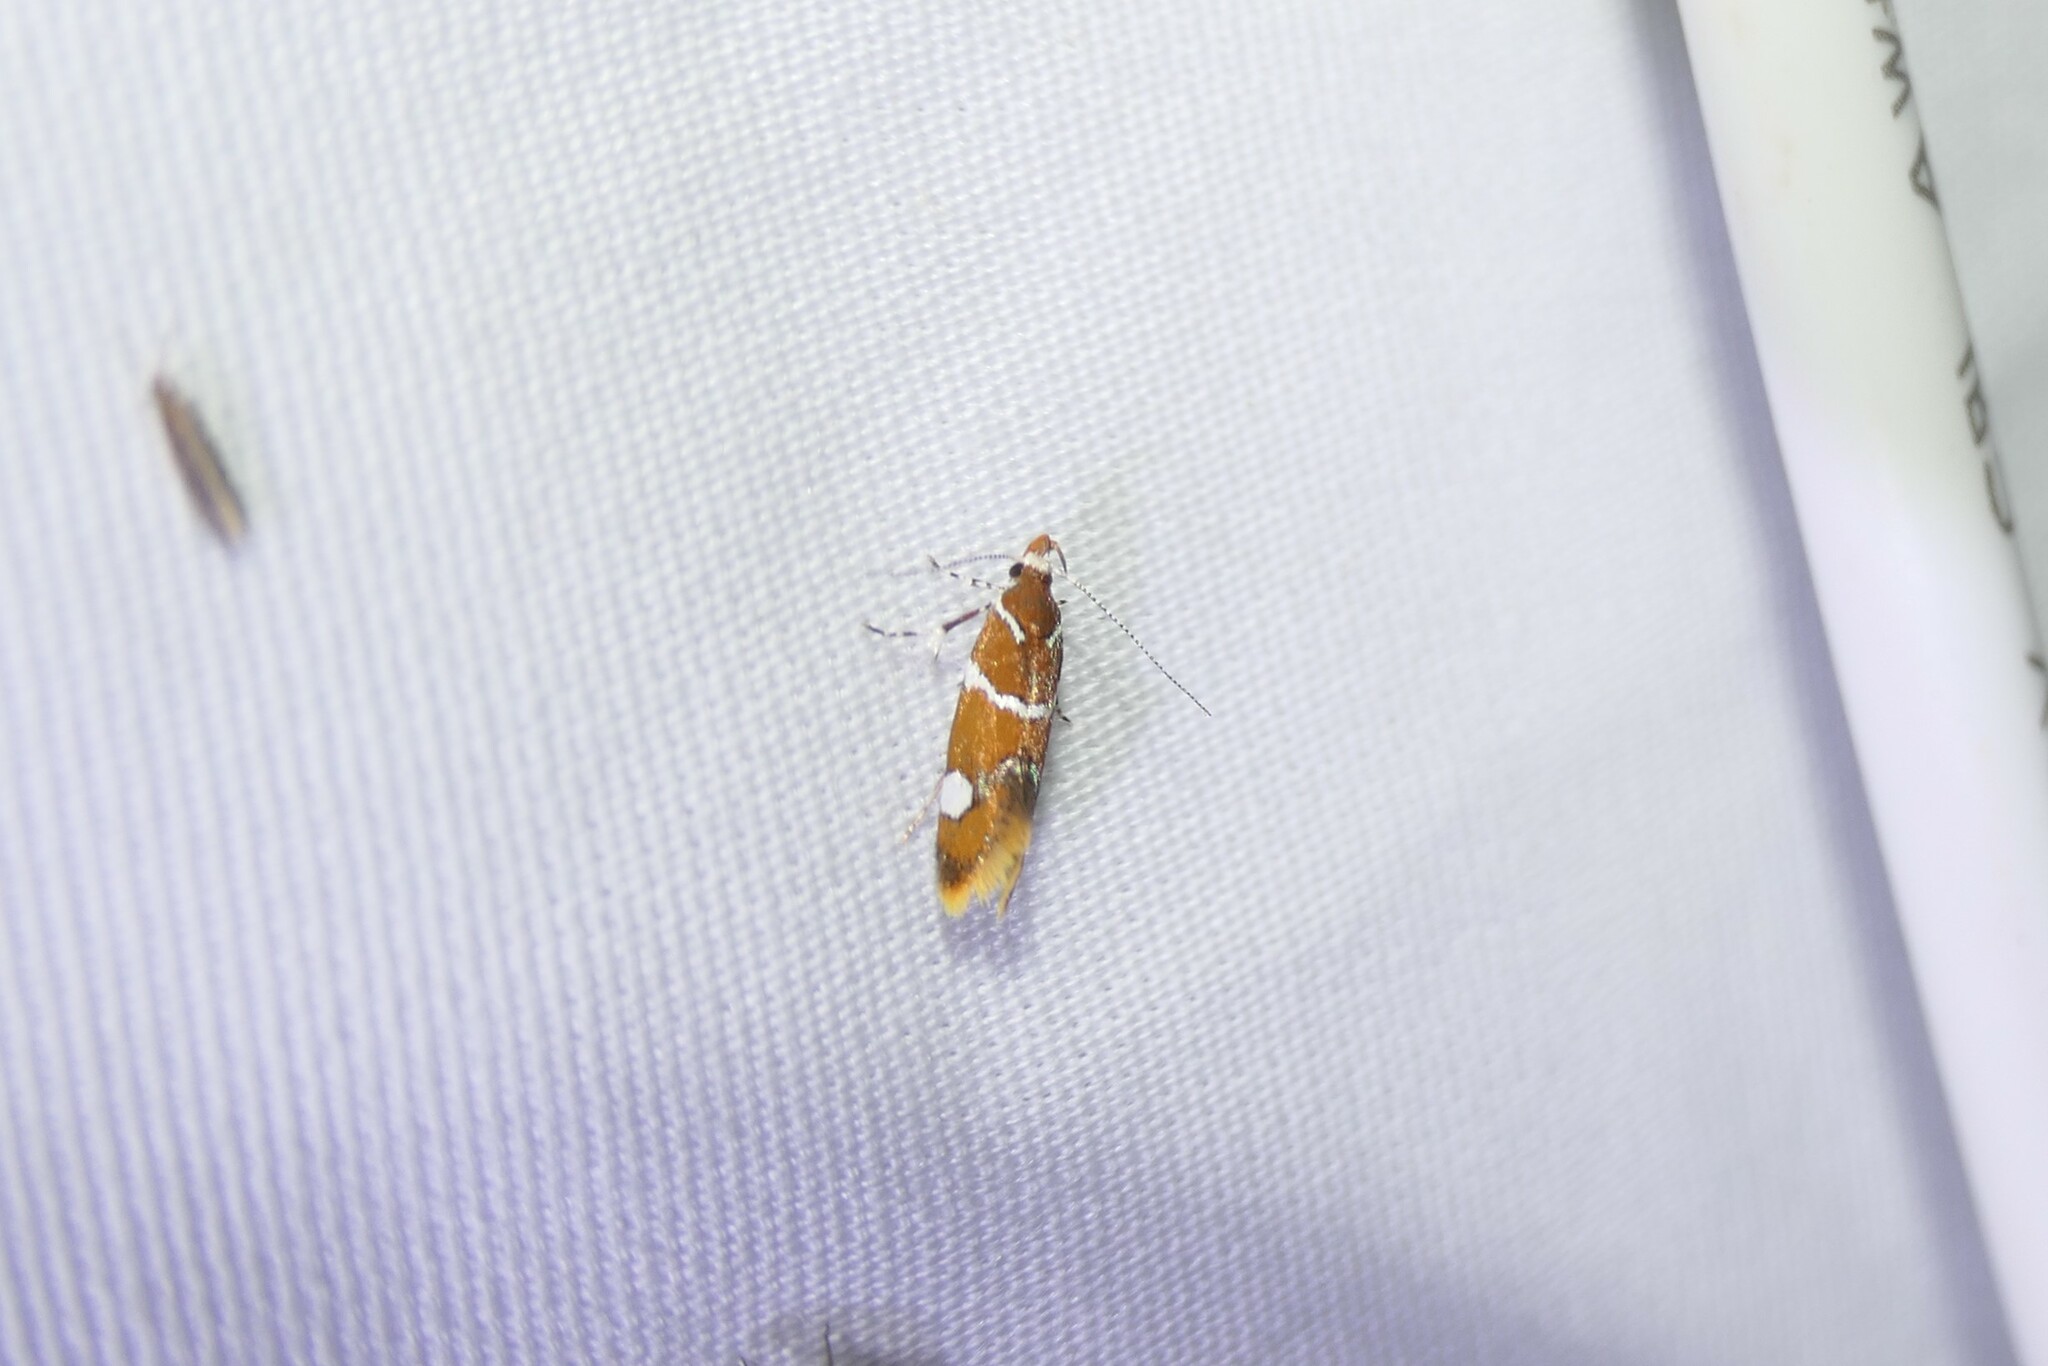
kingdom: Animalia
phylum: Arthropoda
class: Insecta
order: Lepidoptera
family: Oecophoridae
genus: Promalactis
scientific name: Promalactis suzukiella
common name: Moth
